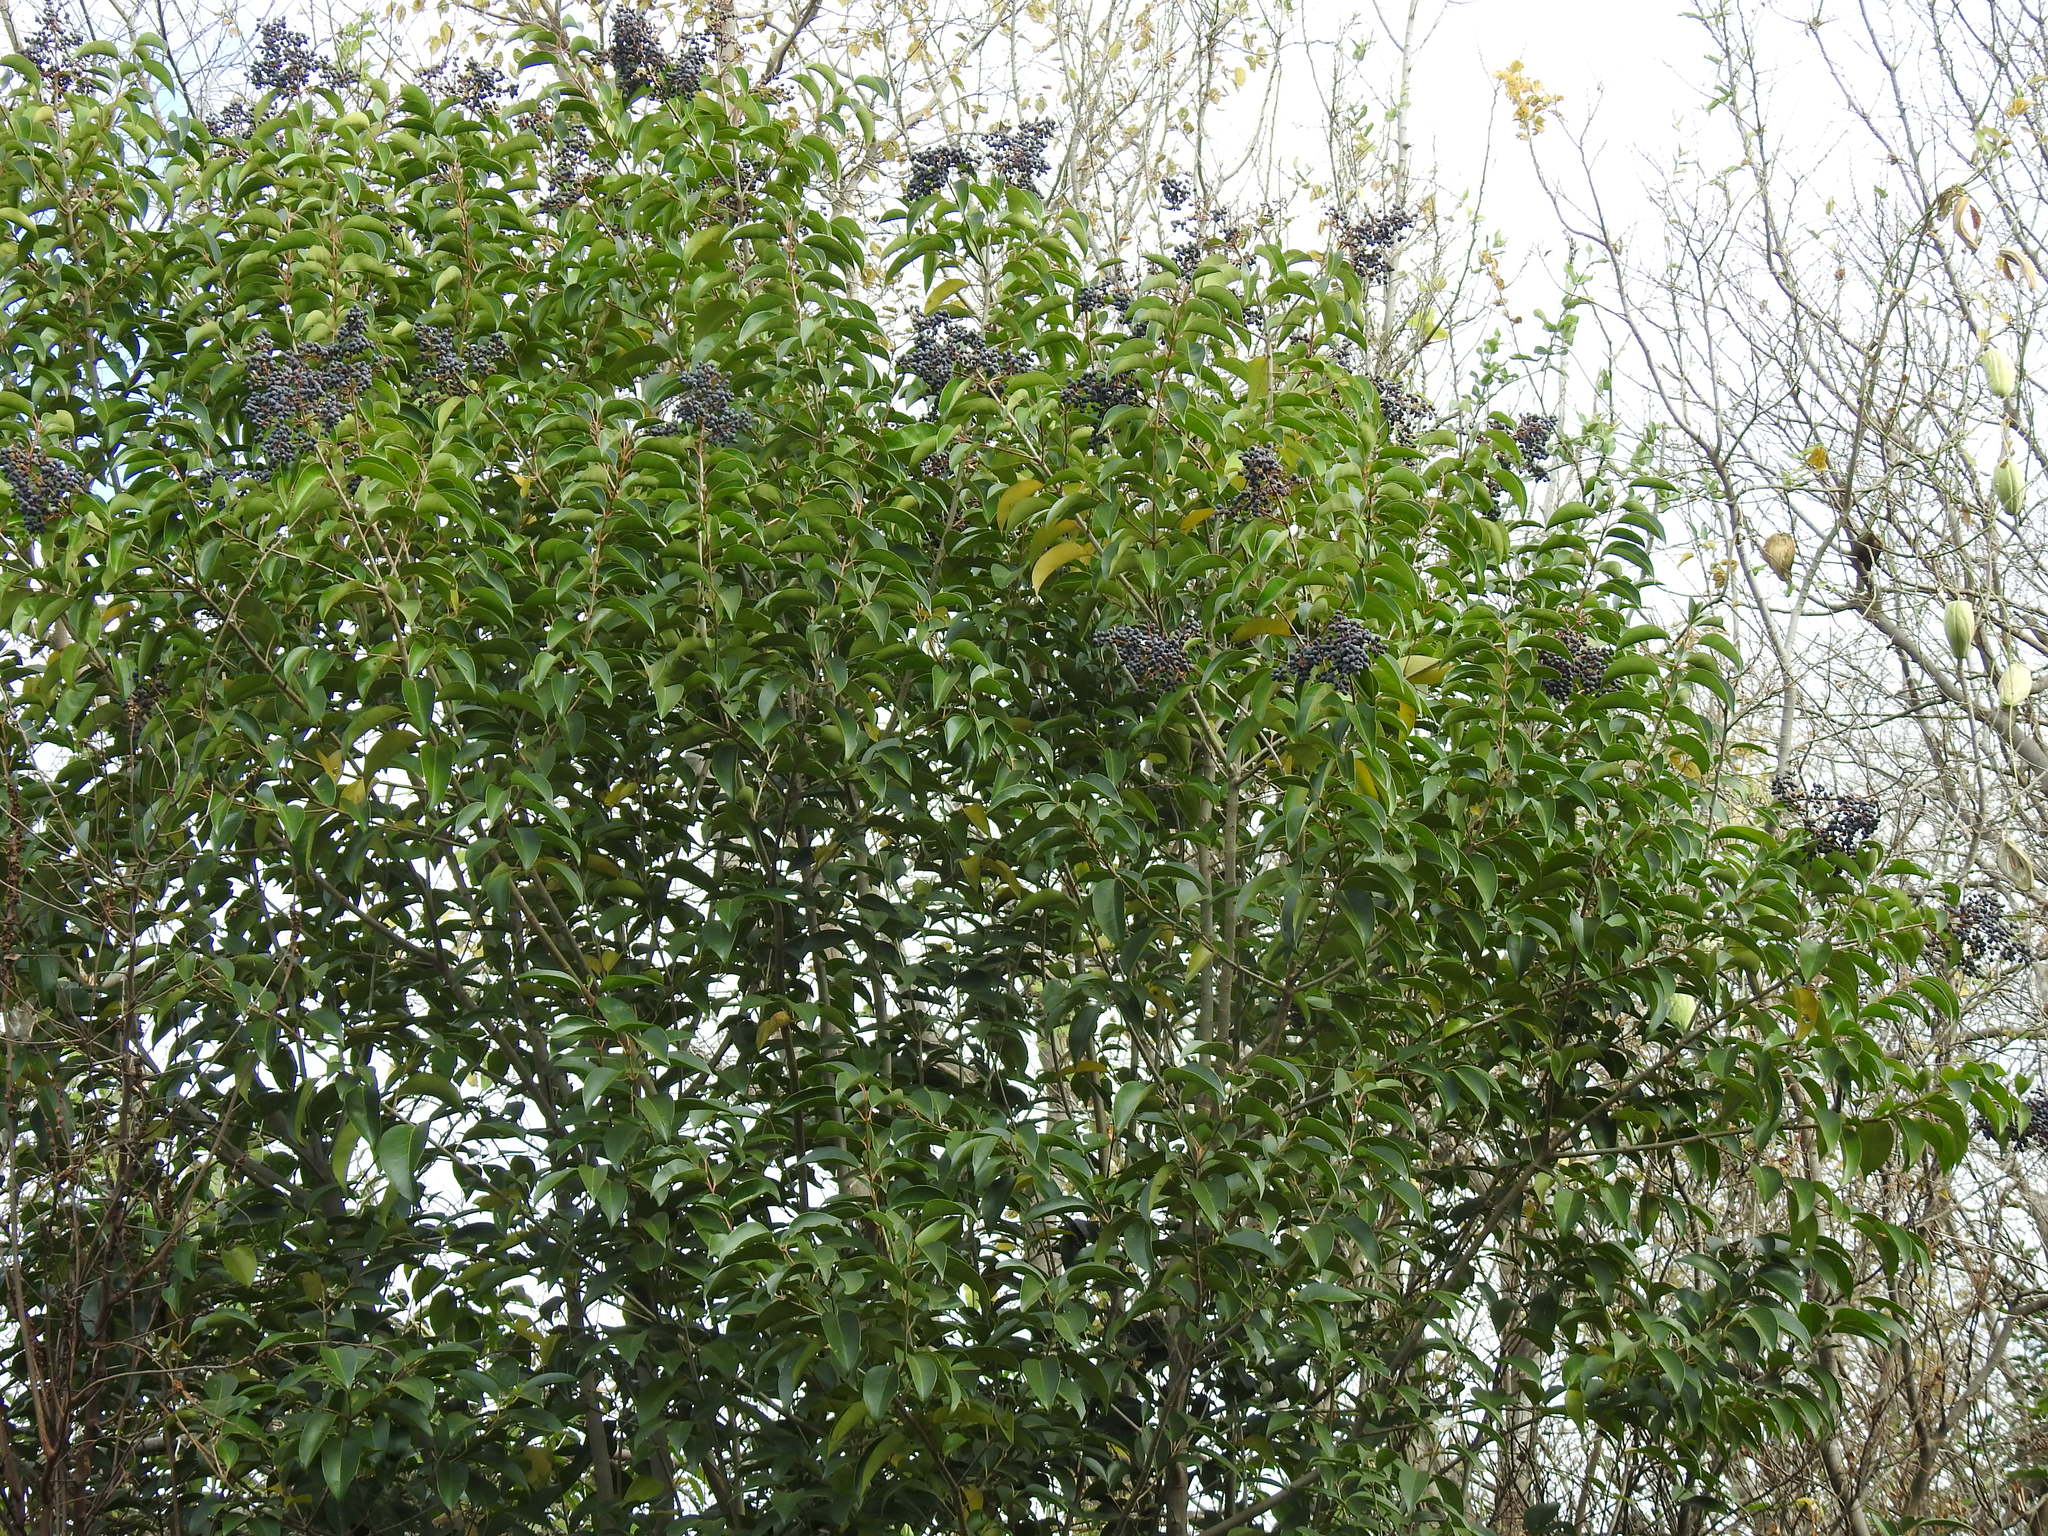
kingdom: Plantae
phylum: Tracheophyta
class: Magnoliopsida
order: Lamiales
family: Oleaceae
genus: Ligustrum
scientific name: Ligustrum lucidum
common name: Glossy privet
